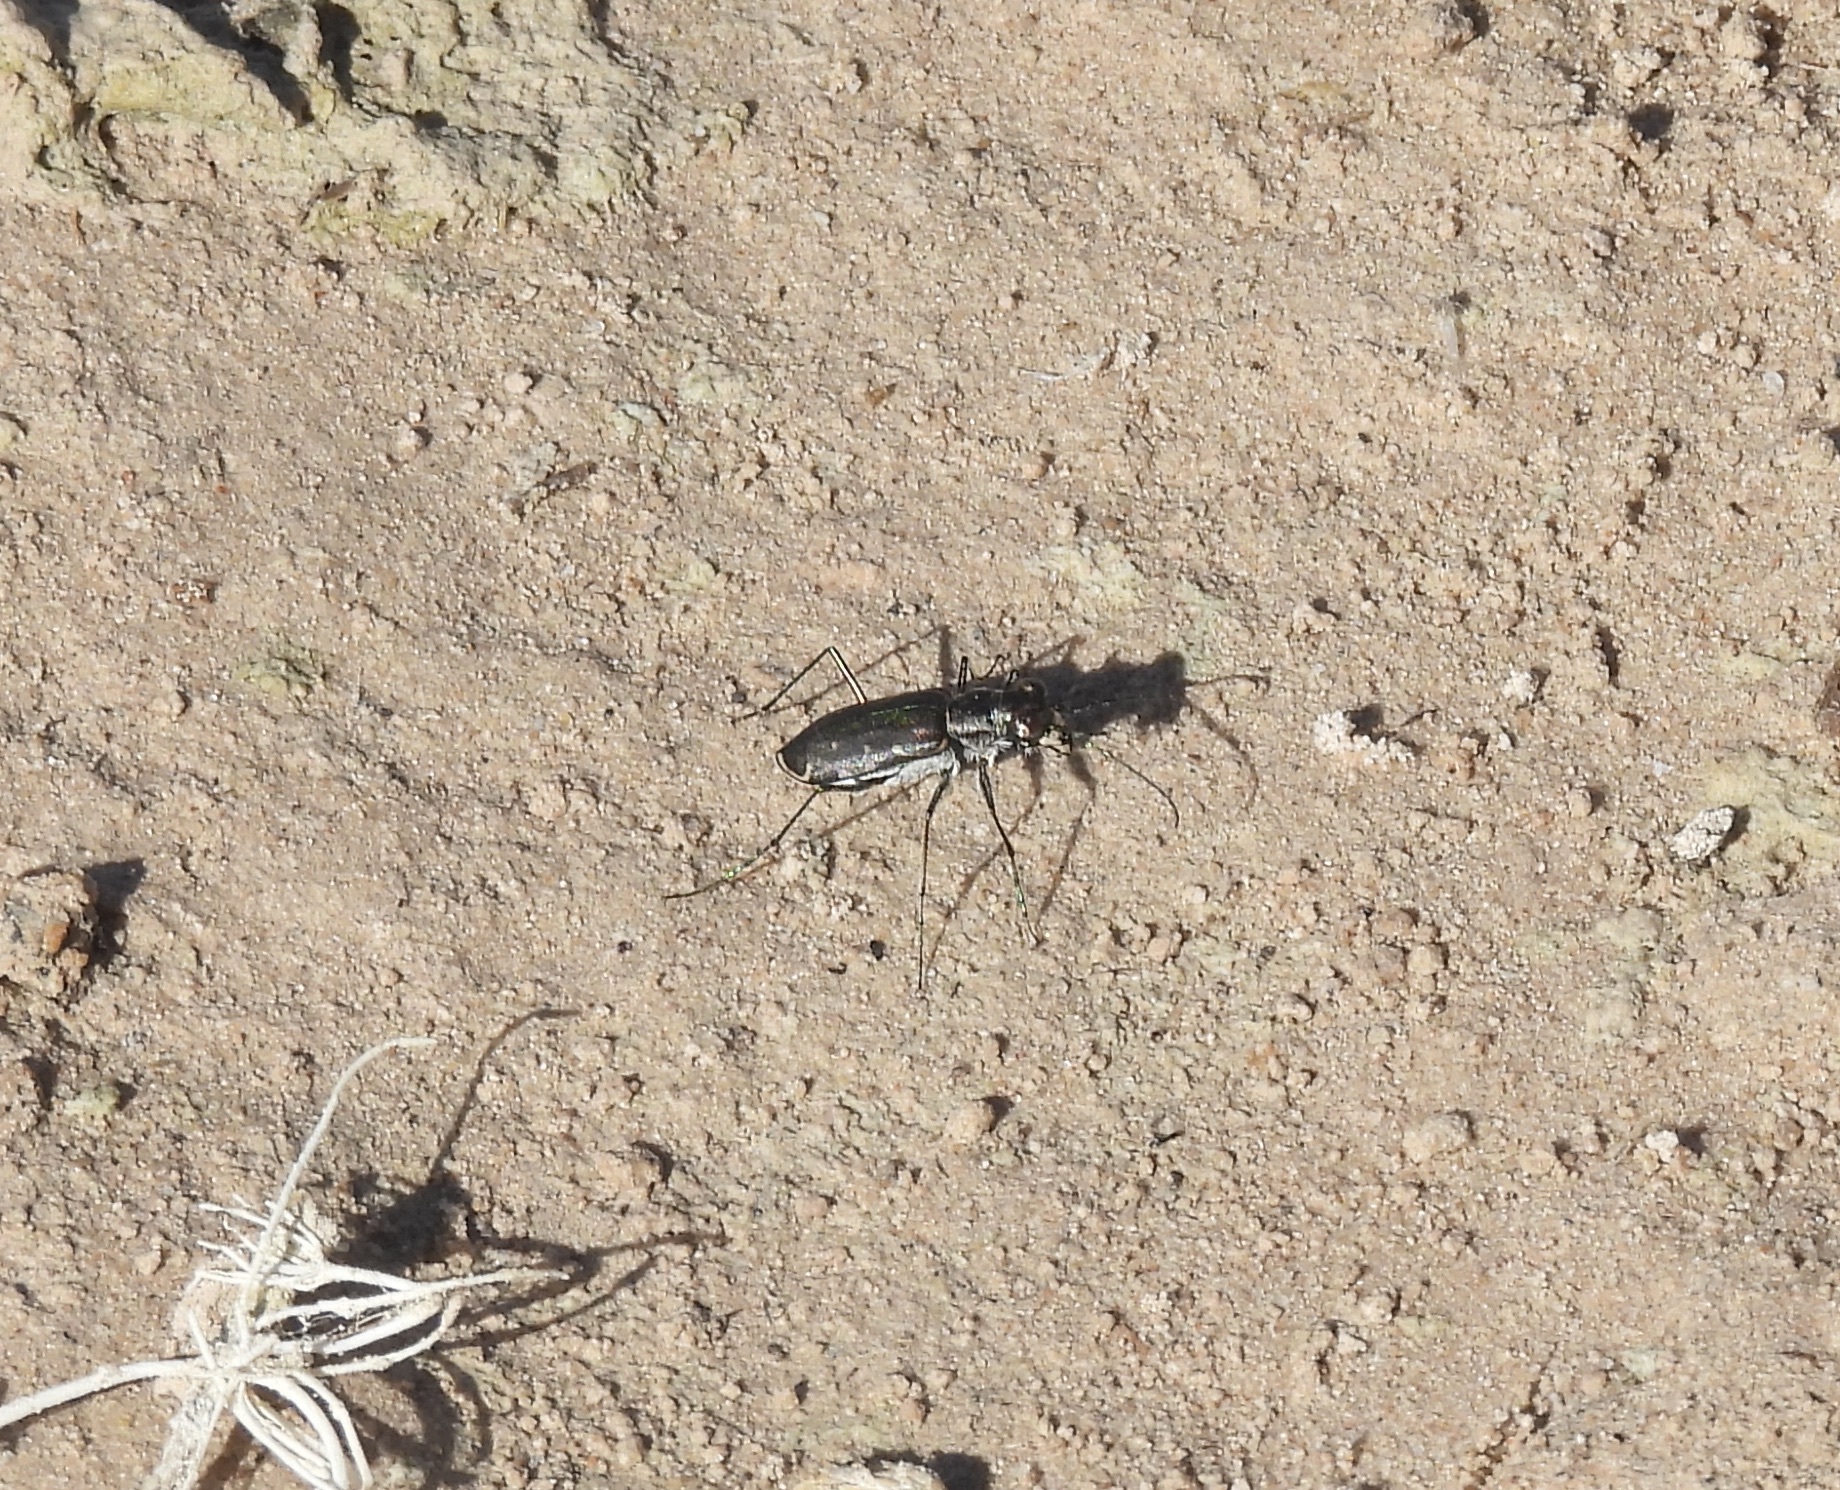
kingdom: Animalia
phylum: Arthropoda
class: Insecta
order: Coleoptera
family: Carabidae
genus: Cicindela
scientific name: Cicindela punctulata
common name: Punctured tiger beetle
